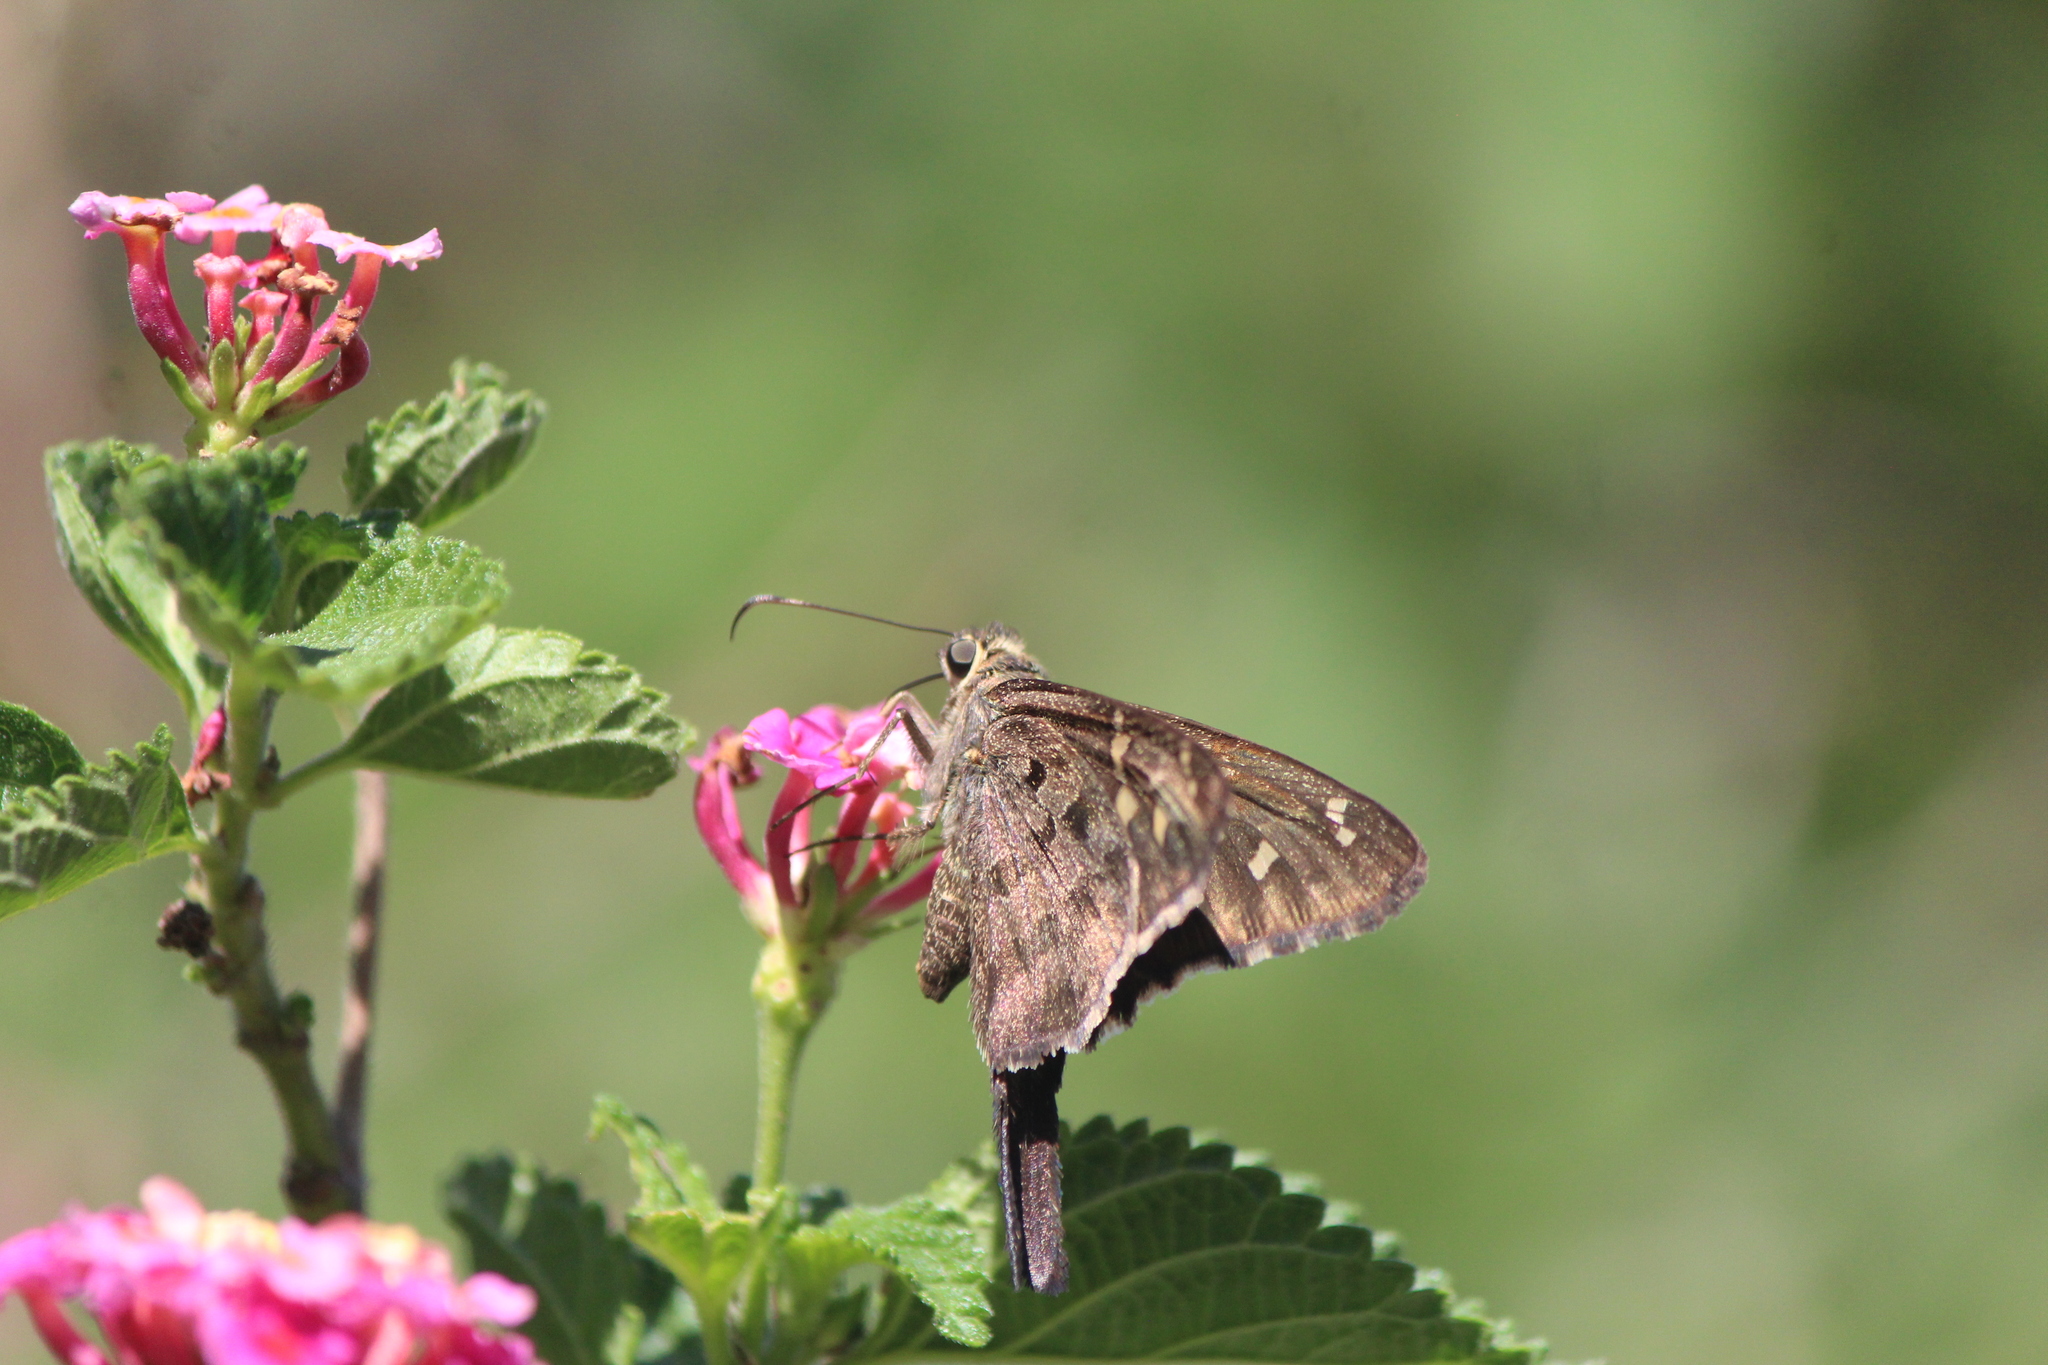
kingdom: Animalia
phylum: Arthropoda
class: Insecta
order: Lepidoptera
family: Hesperiidae
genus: Thorybes
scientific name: Thorybes
